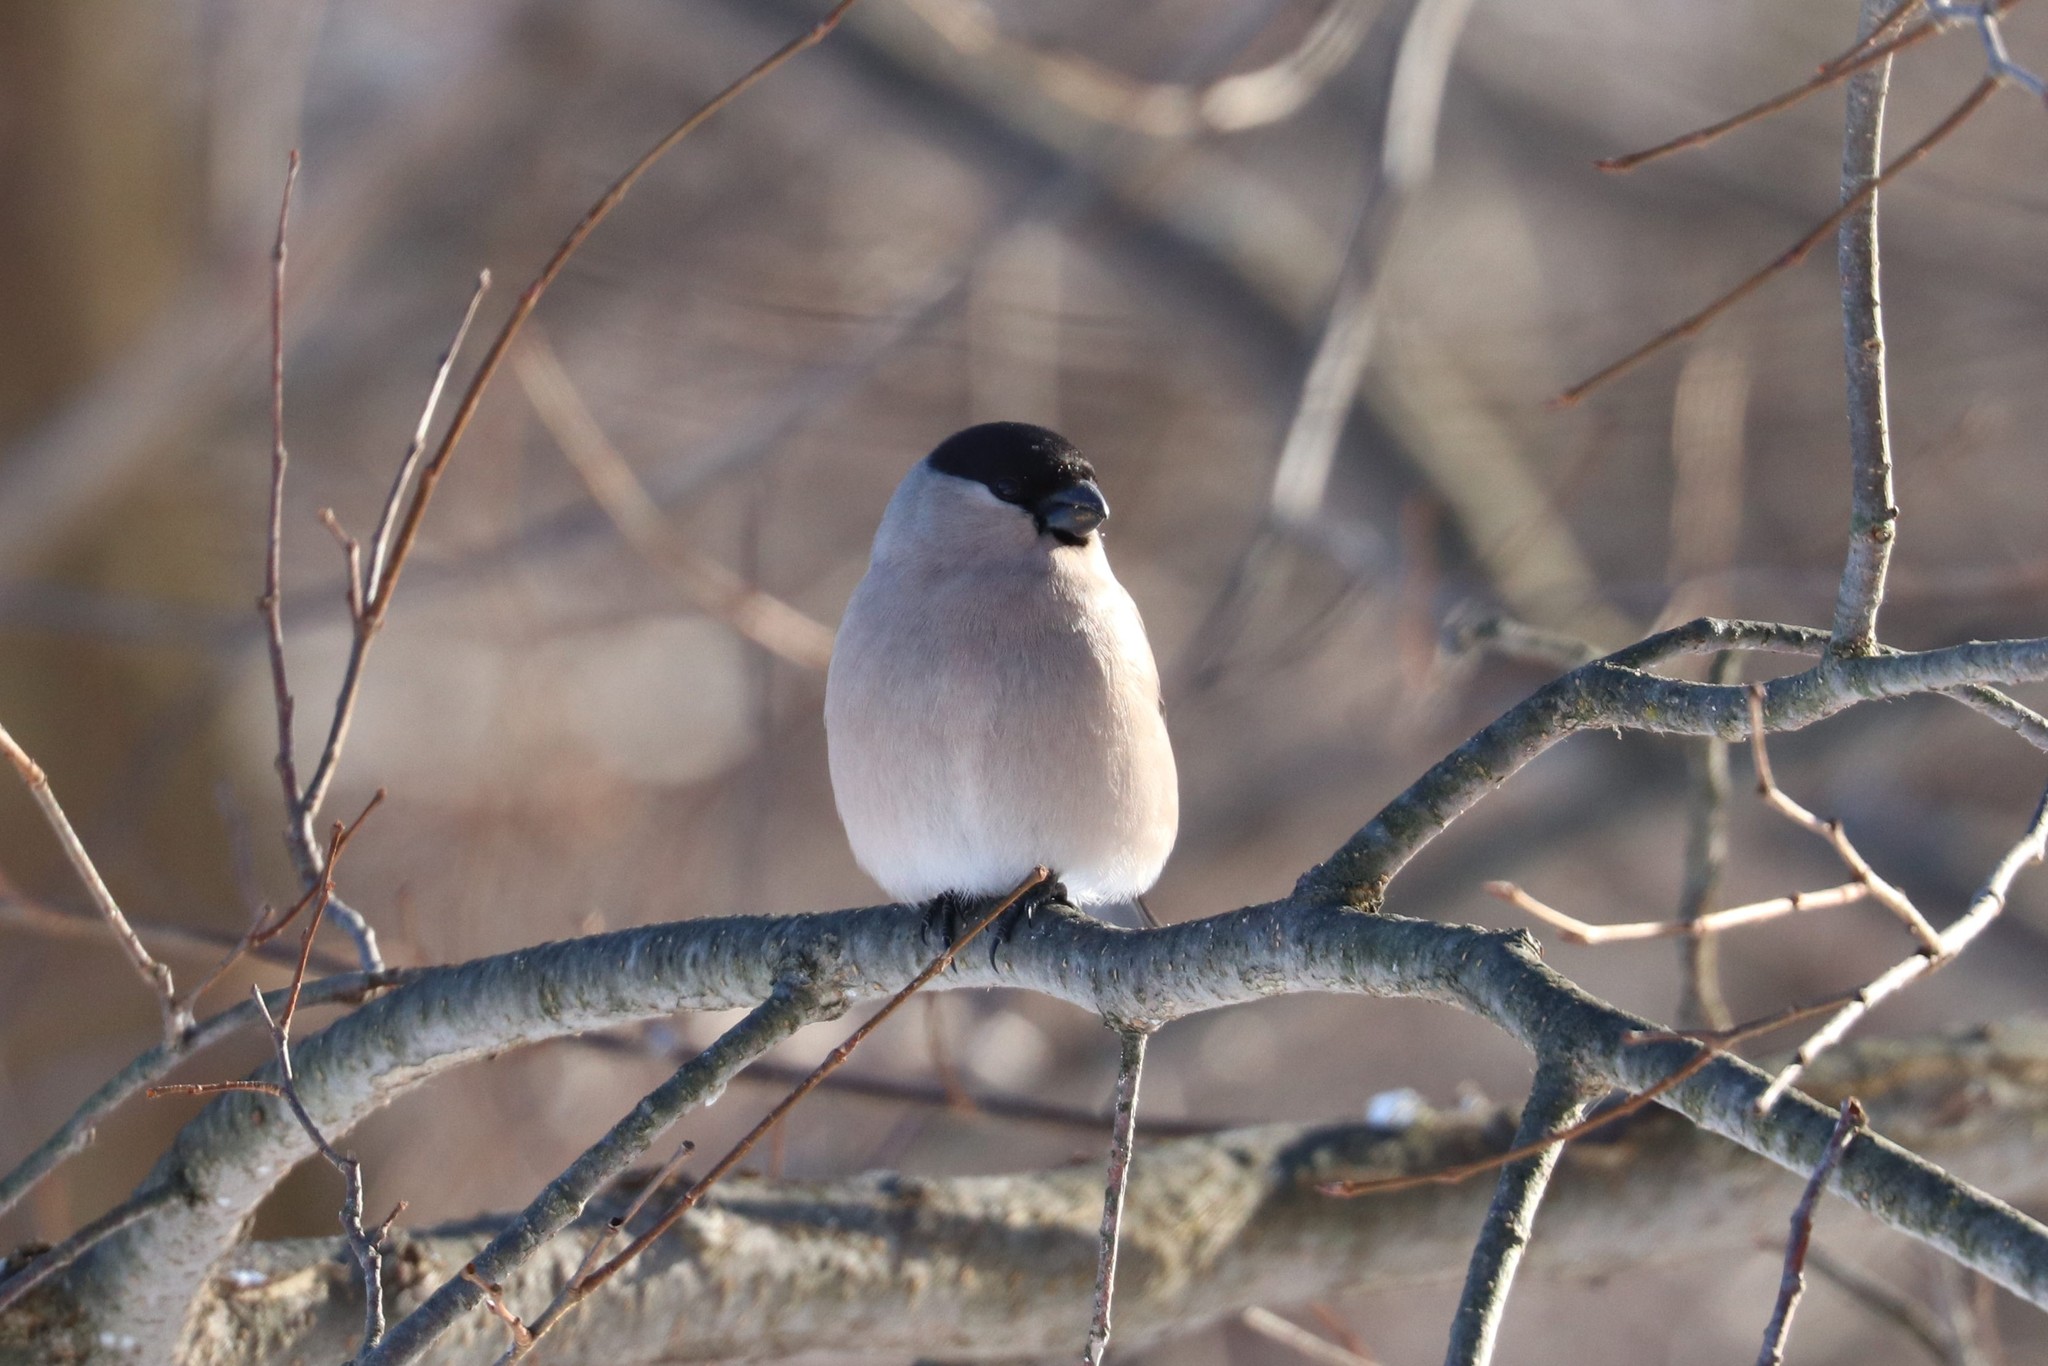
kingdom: Animalia
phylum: Chordata
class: Aves
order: Passeriformes
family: Fringillidae
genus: Pyrrhula
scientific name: Pyrrhula pyrrhula
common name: Eurasian bullfinch
